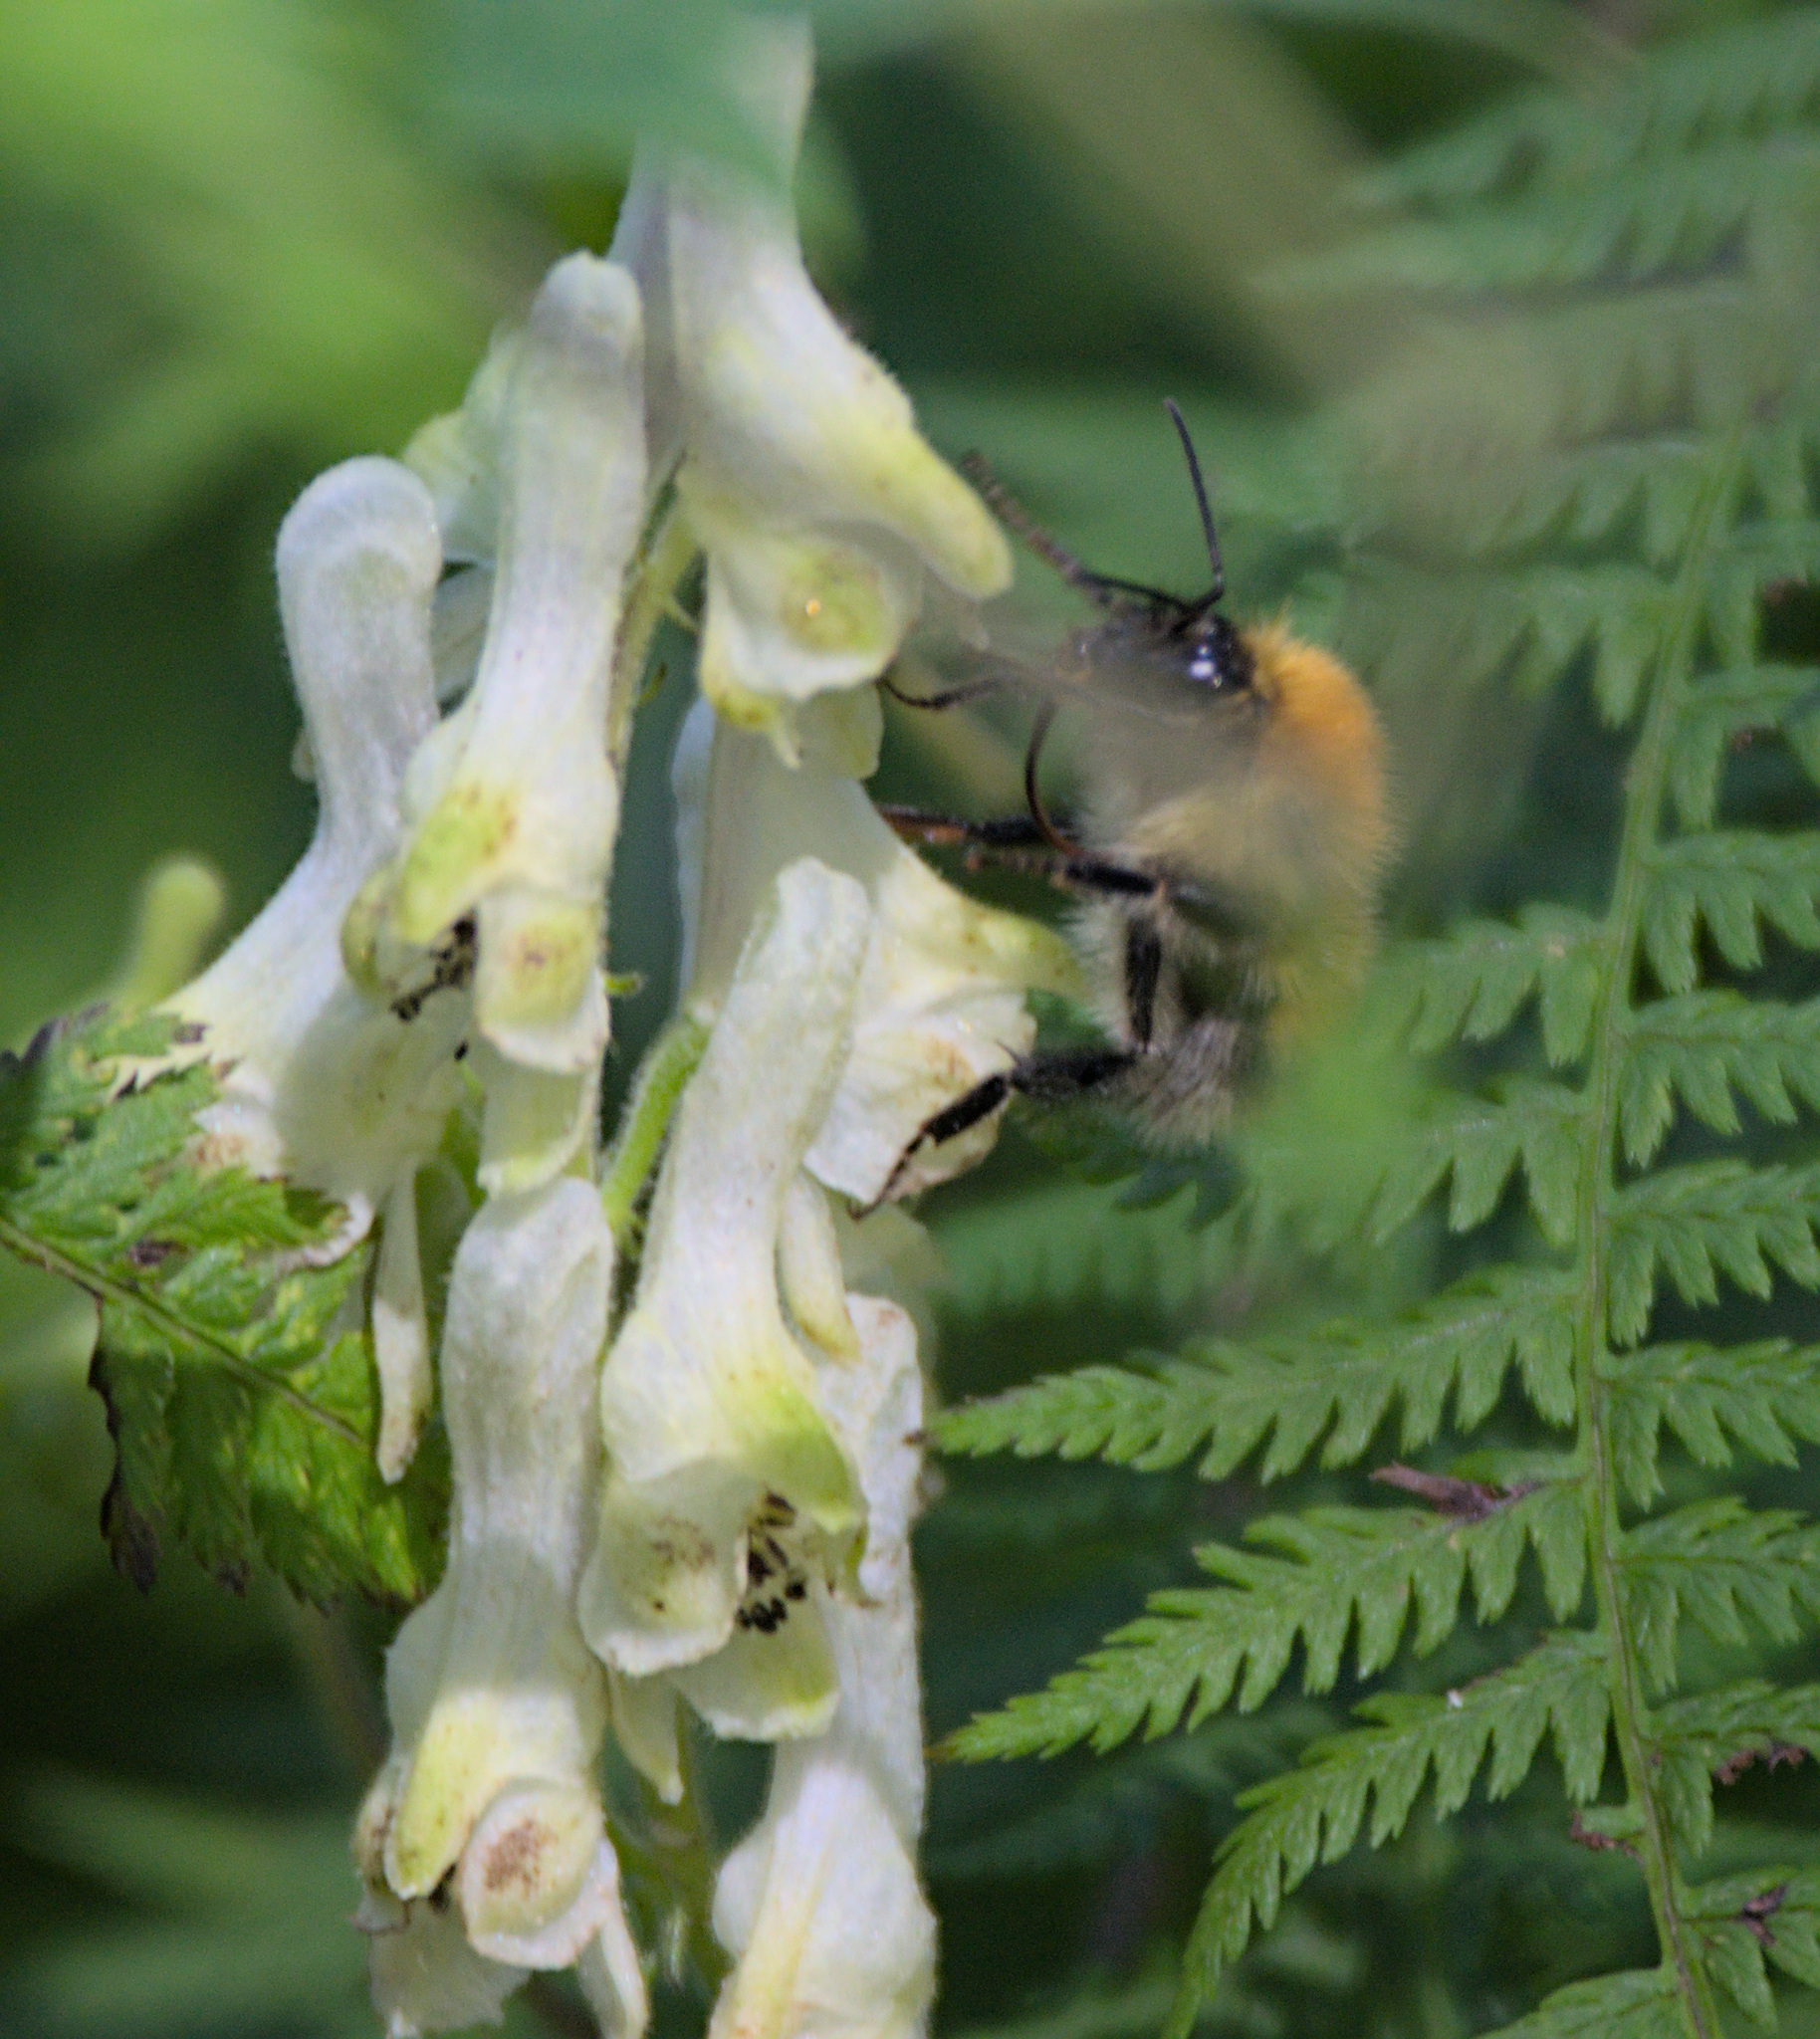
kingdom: Plantae
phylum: Tracheophyta
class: Magnoliopsida
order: Ranunculales
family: Ranunculaceae
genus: Aconitum
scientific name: Aconitum barbatum
